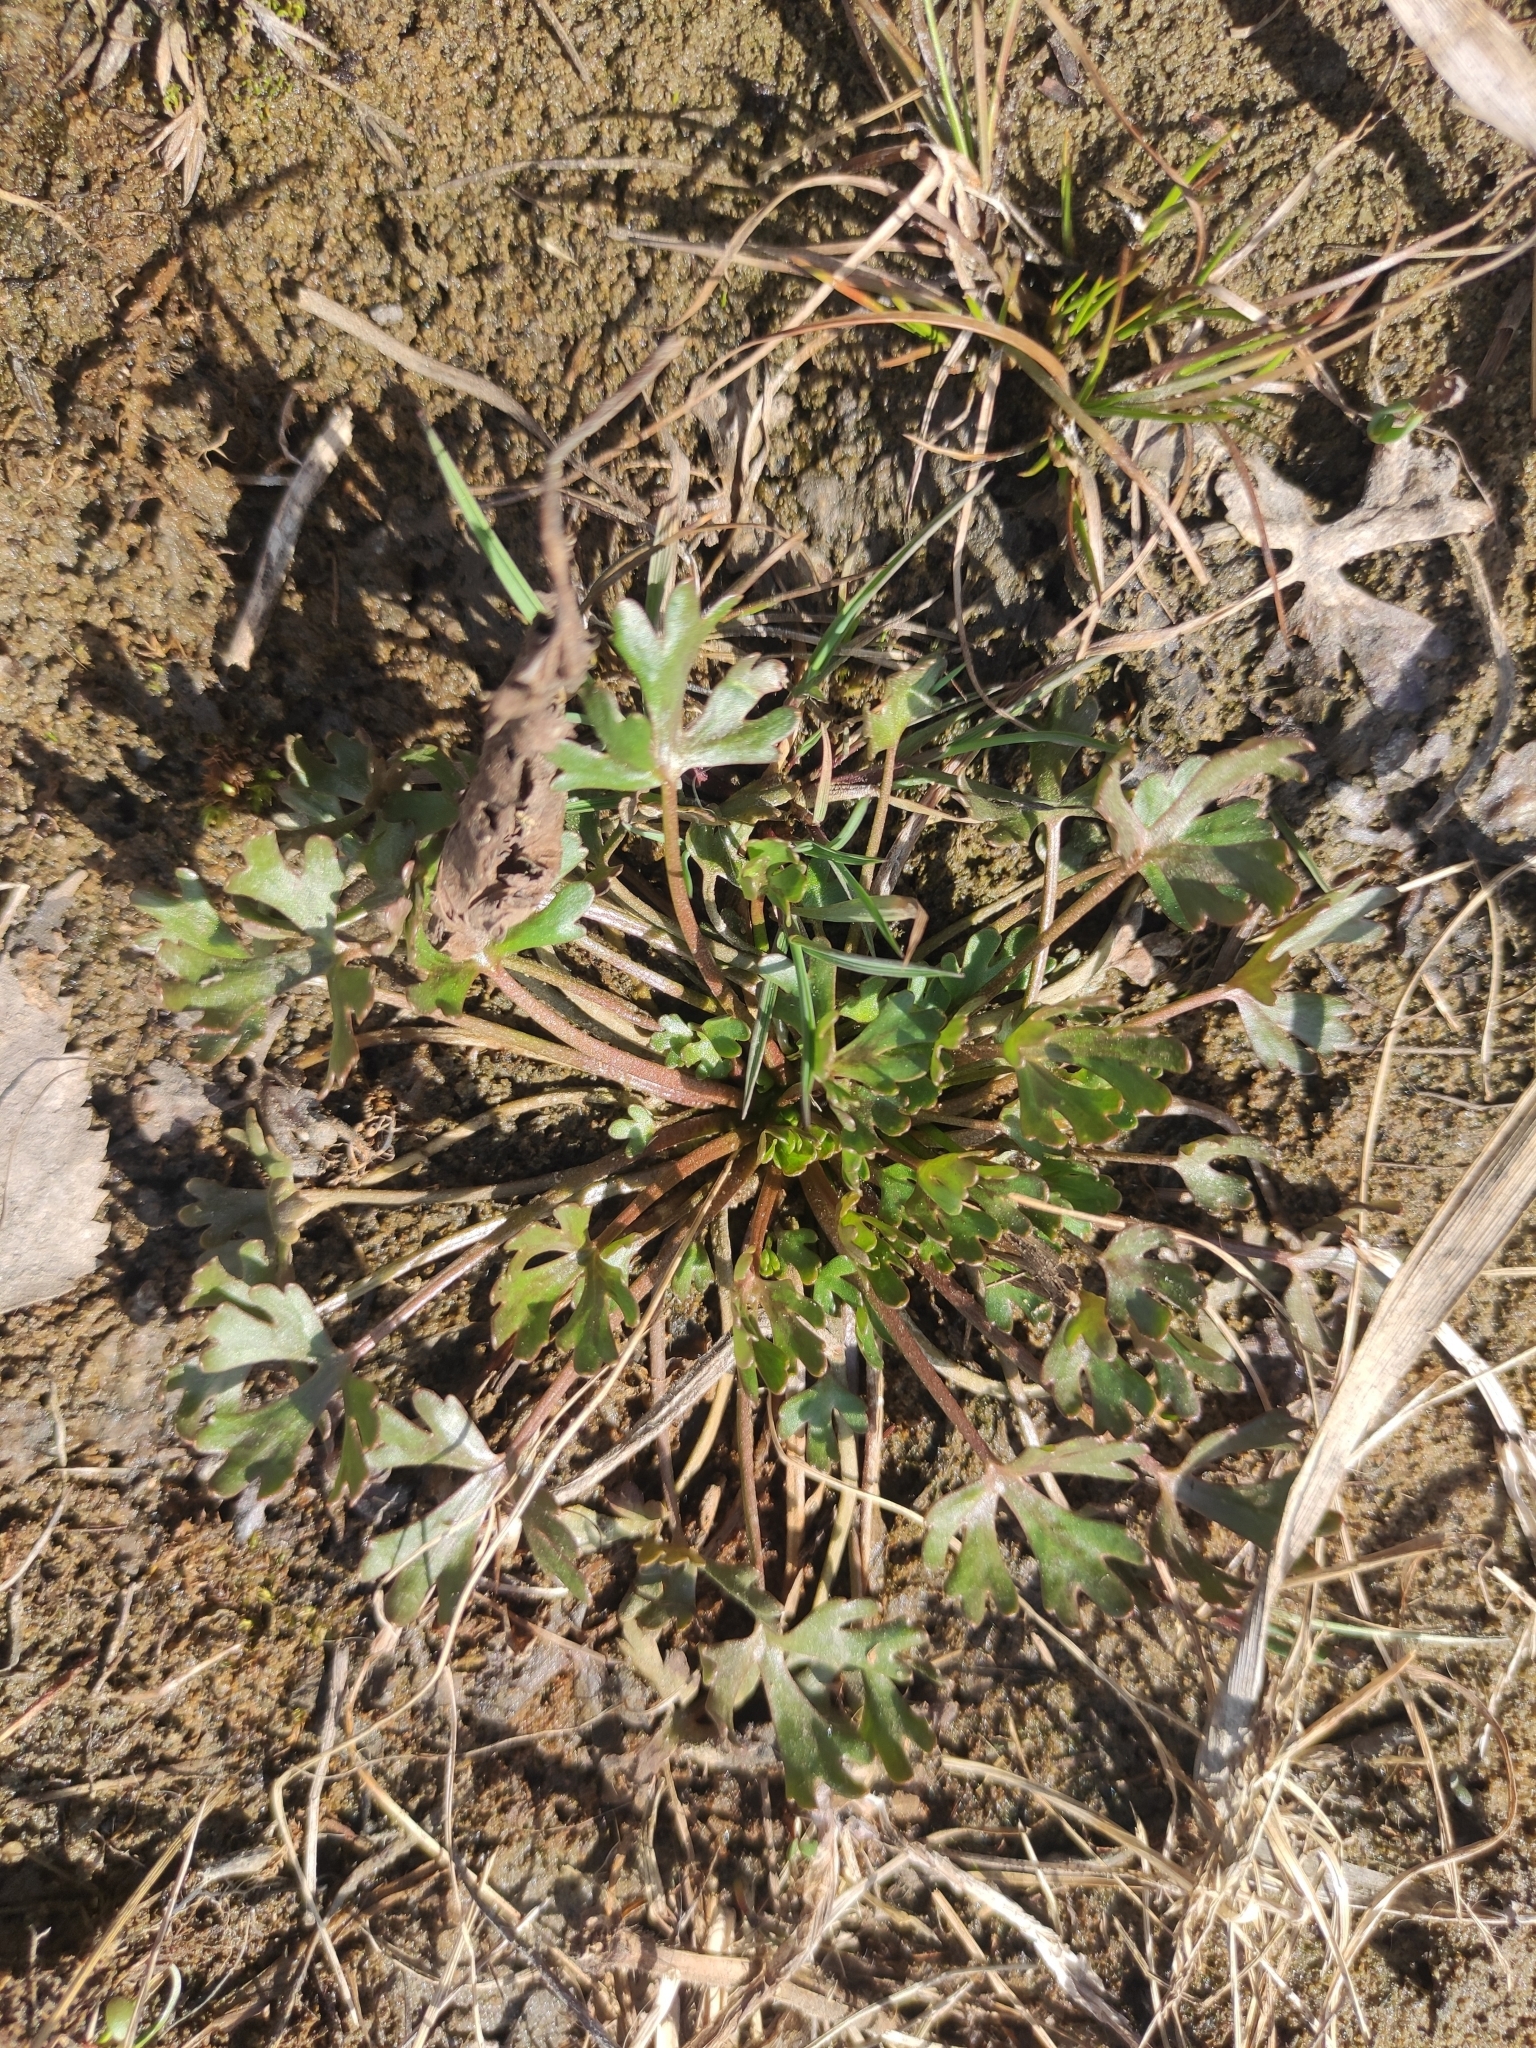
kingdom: Plantae
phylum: Tracheophyta
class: Magnoliopsida
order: Ranunculales
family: Ranunculaceae
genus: Ranunculus
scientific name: Ranunculus sceleratus
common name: Celery-leaved buttercup
